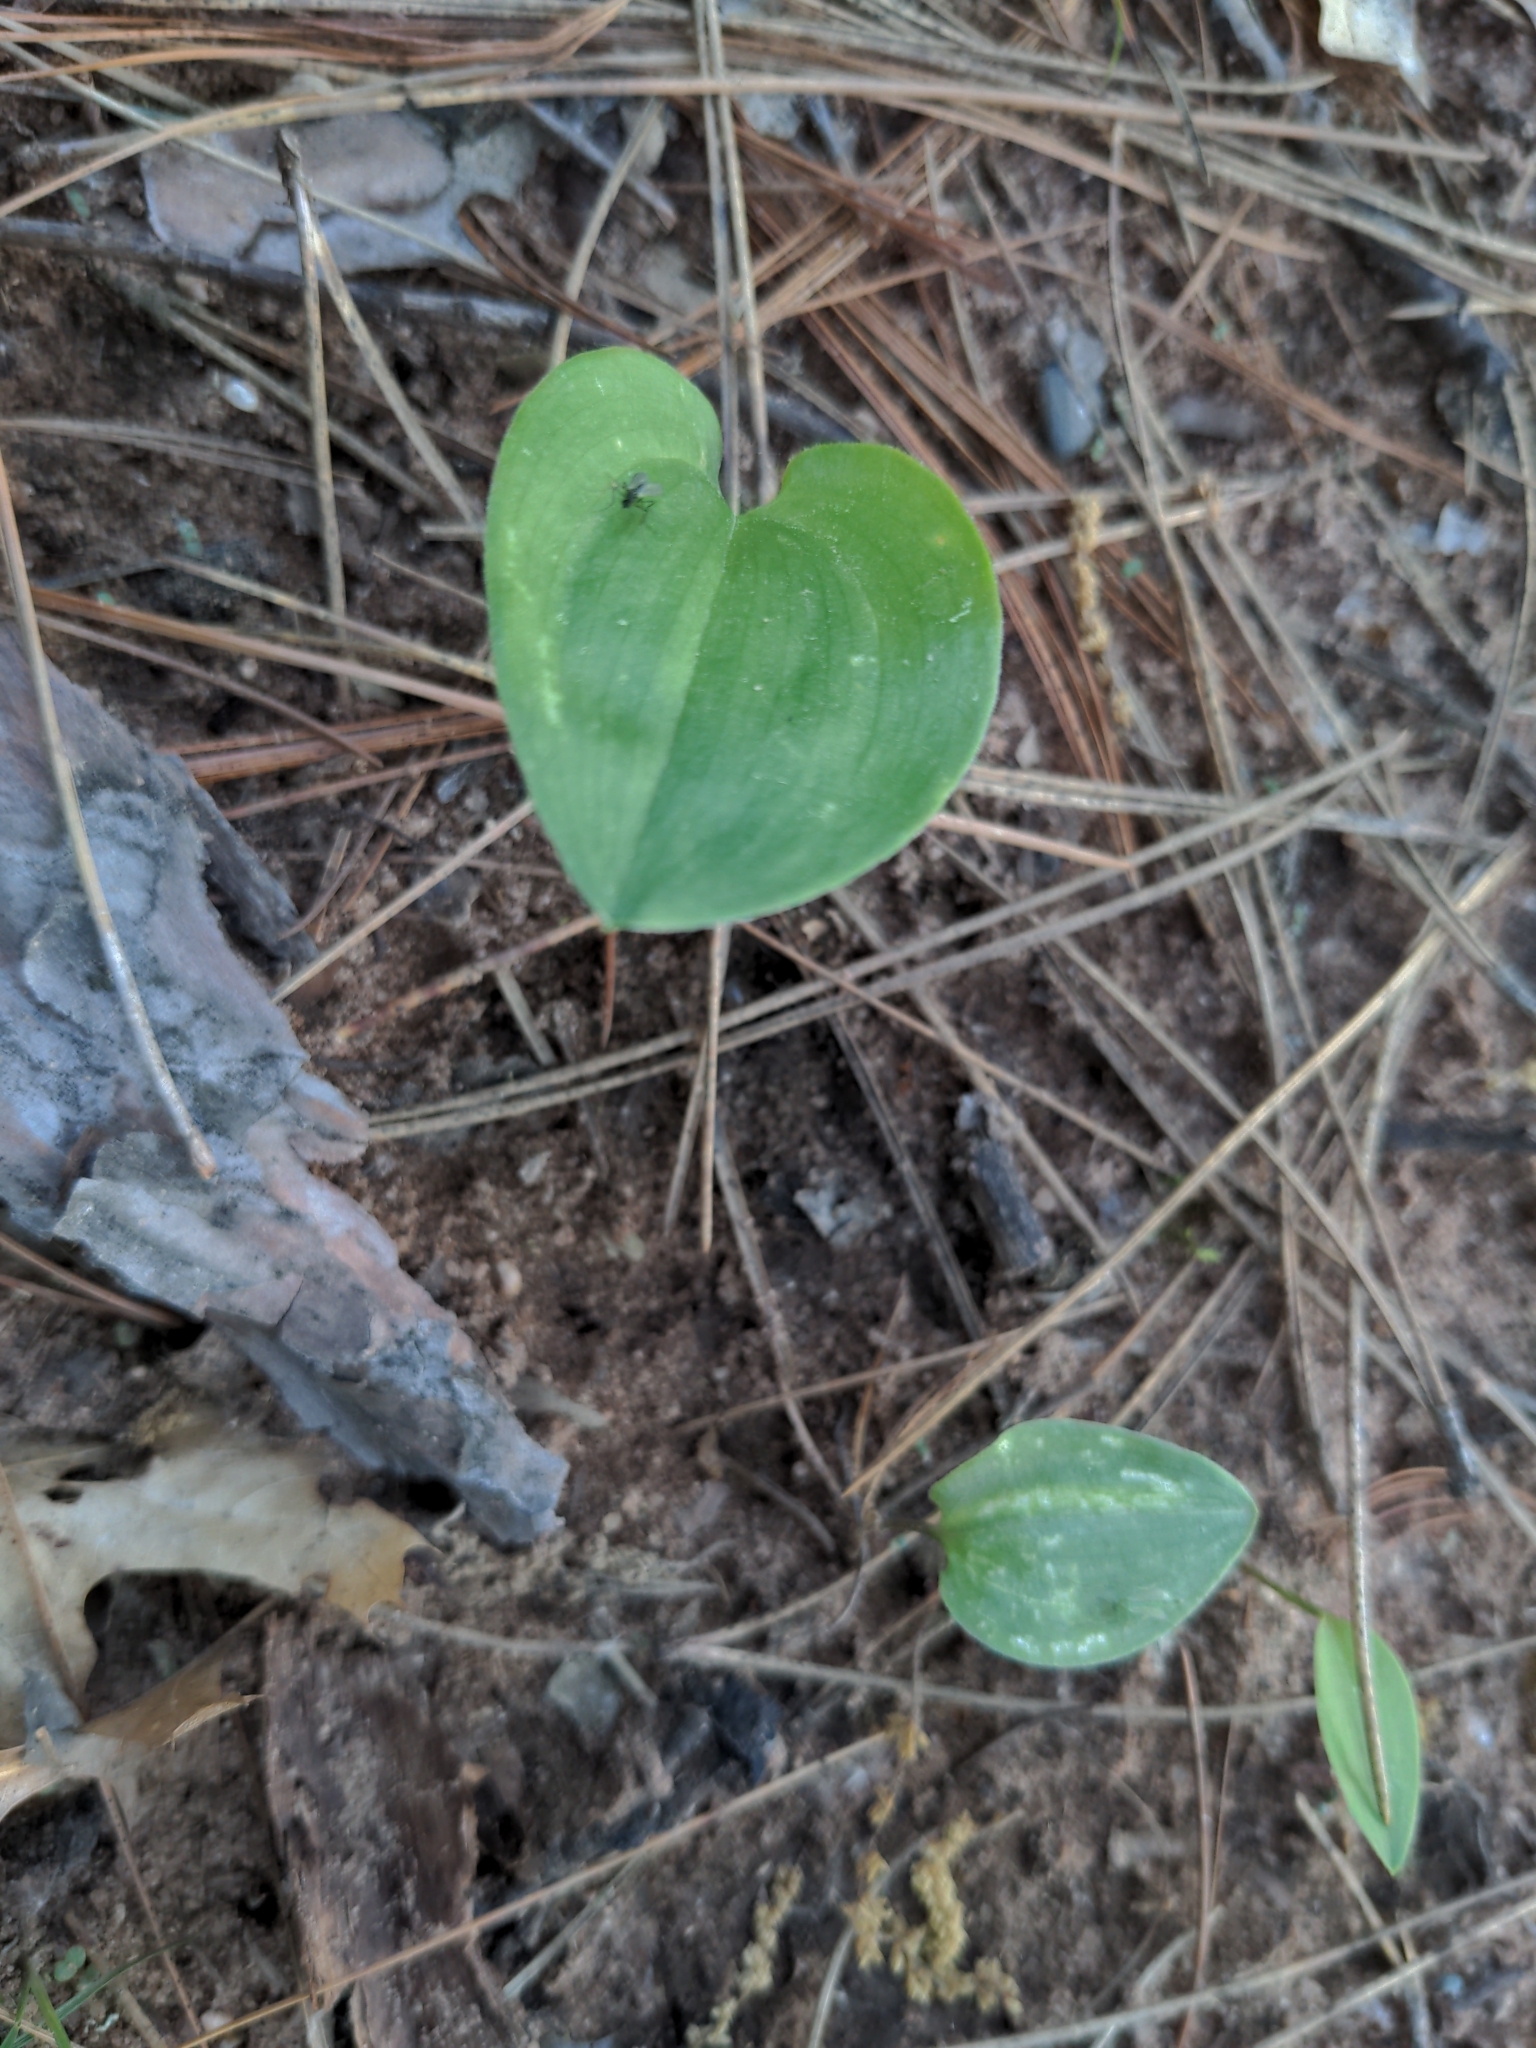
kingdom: Plantae
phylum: Tracheophyta
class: Liliopsida
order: Asparagales
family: Asparagaceae
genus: Maianthemum
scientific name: Maianthemum canadense
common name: False lily-of-the-valley
